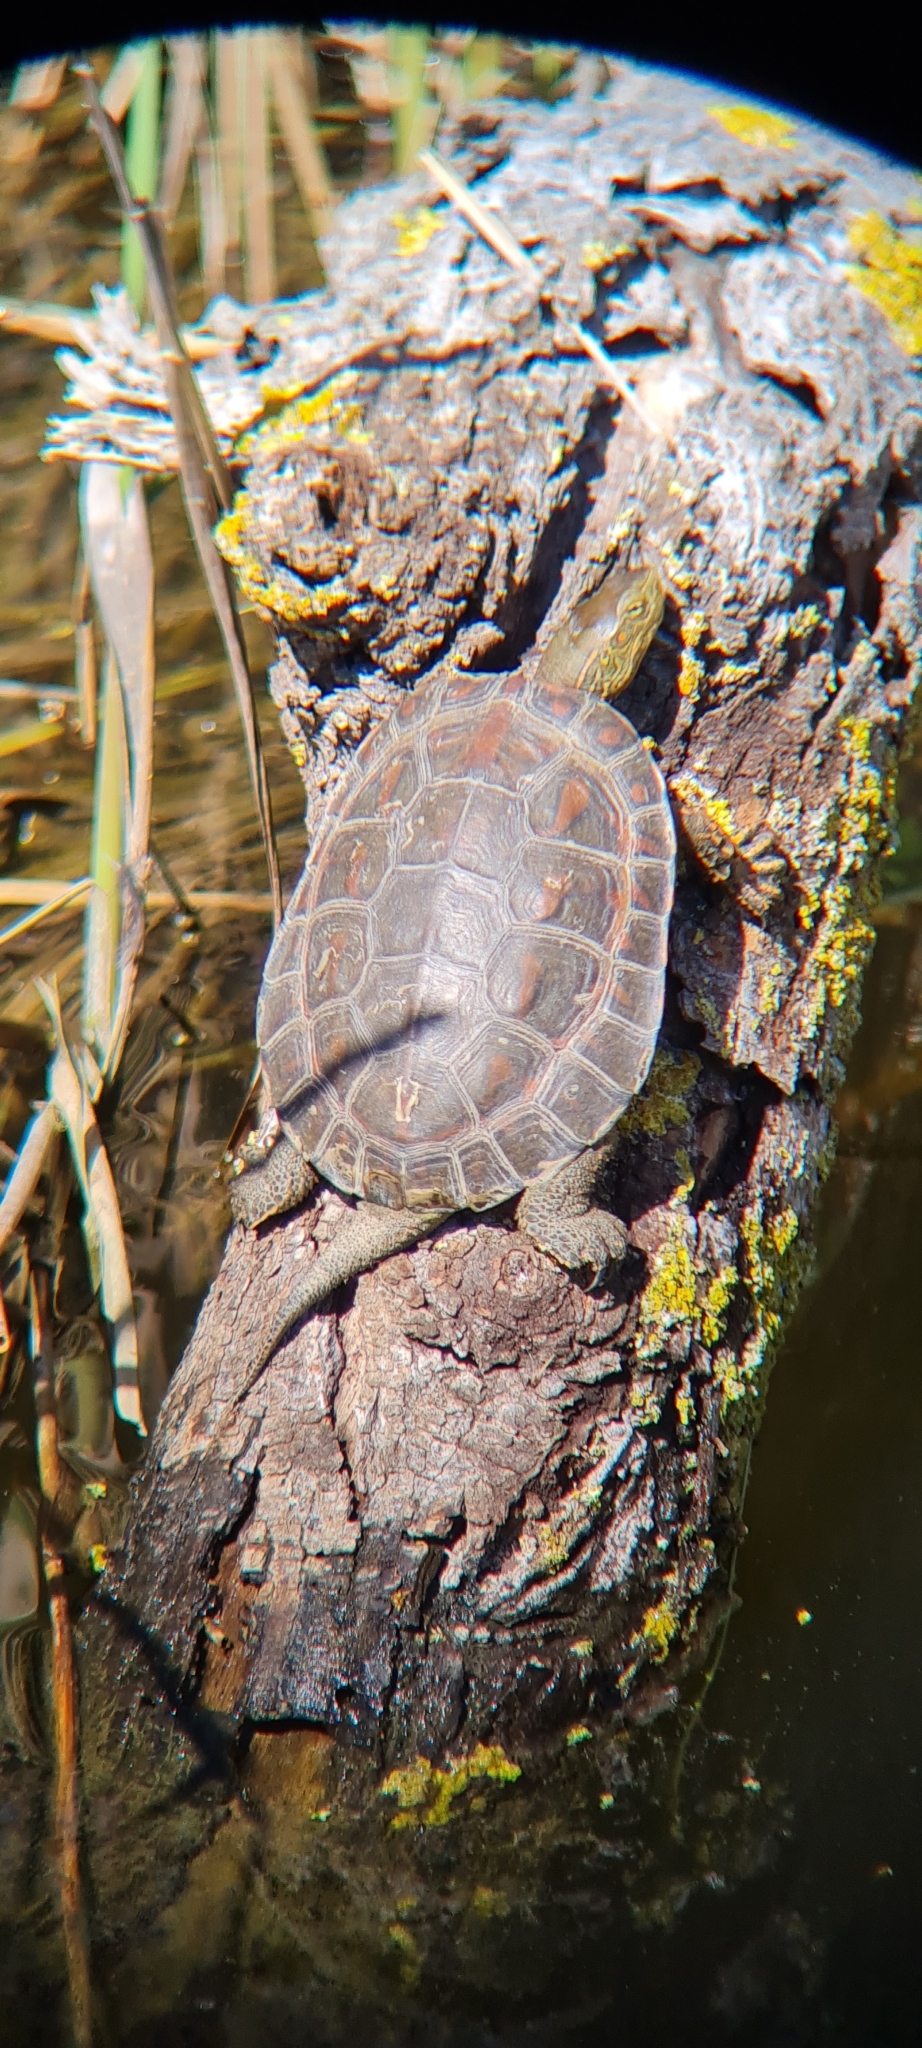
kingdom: Animalia
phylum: Chordata
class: Testudines
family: Geoemydidae
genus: Mauremys
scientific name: Mauremys leprosa
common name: Mediterranean pond turtle
